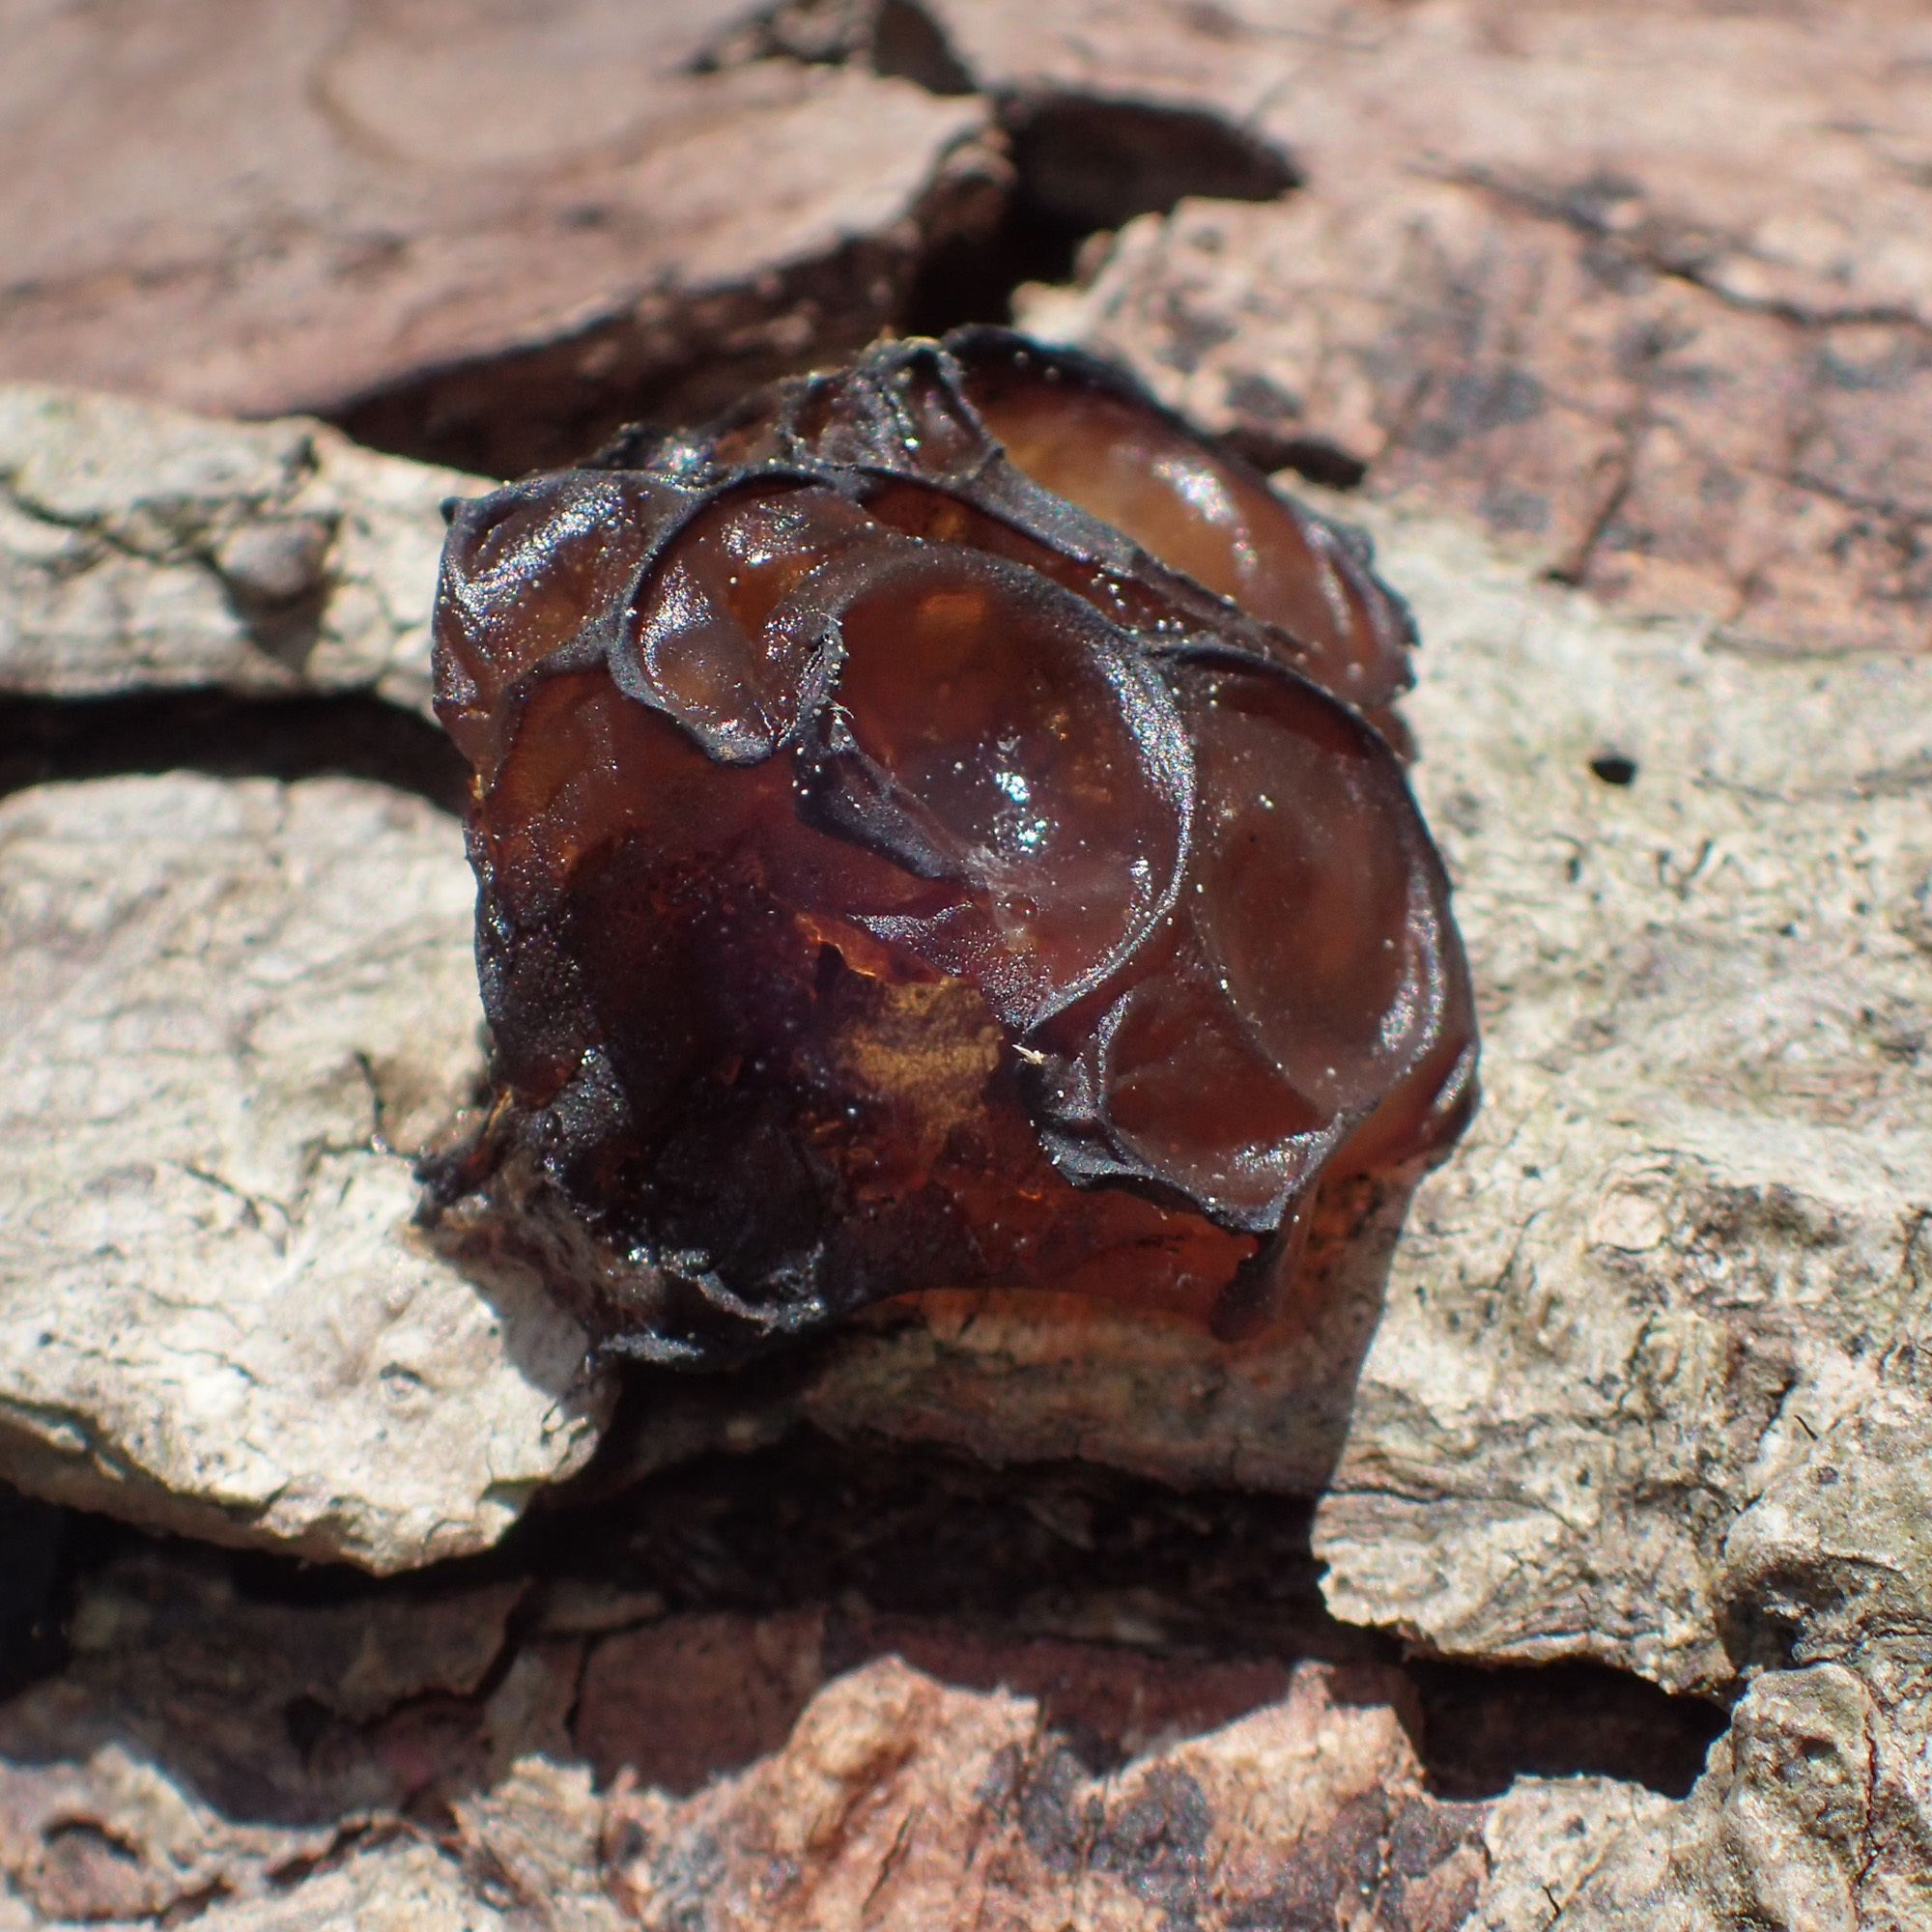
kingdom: Fungi
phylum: Basidiomycota
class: Agaricomycetes
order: Auriculariales
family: Auriculariaceae
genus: Exidia
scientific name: Exidia
